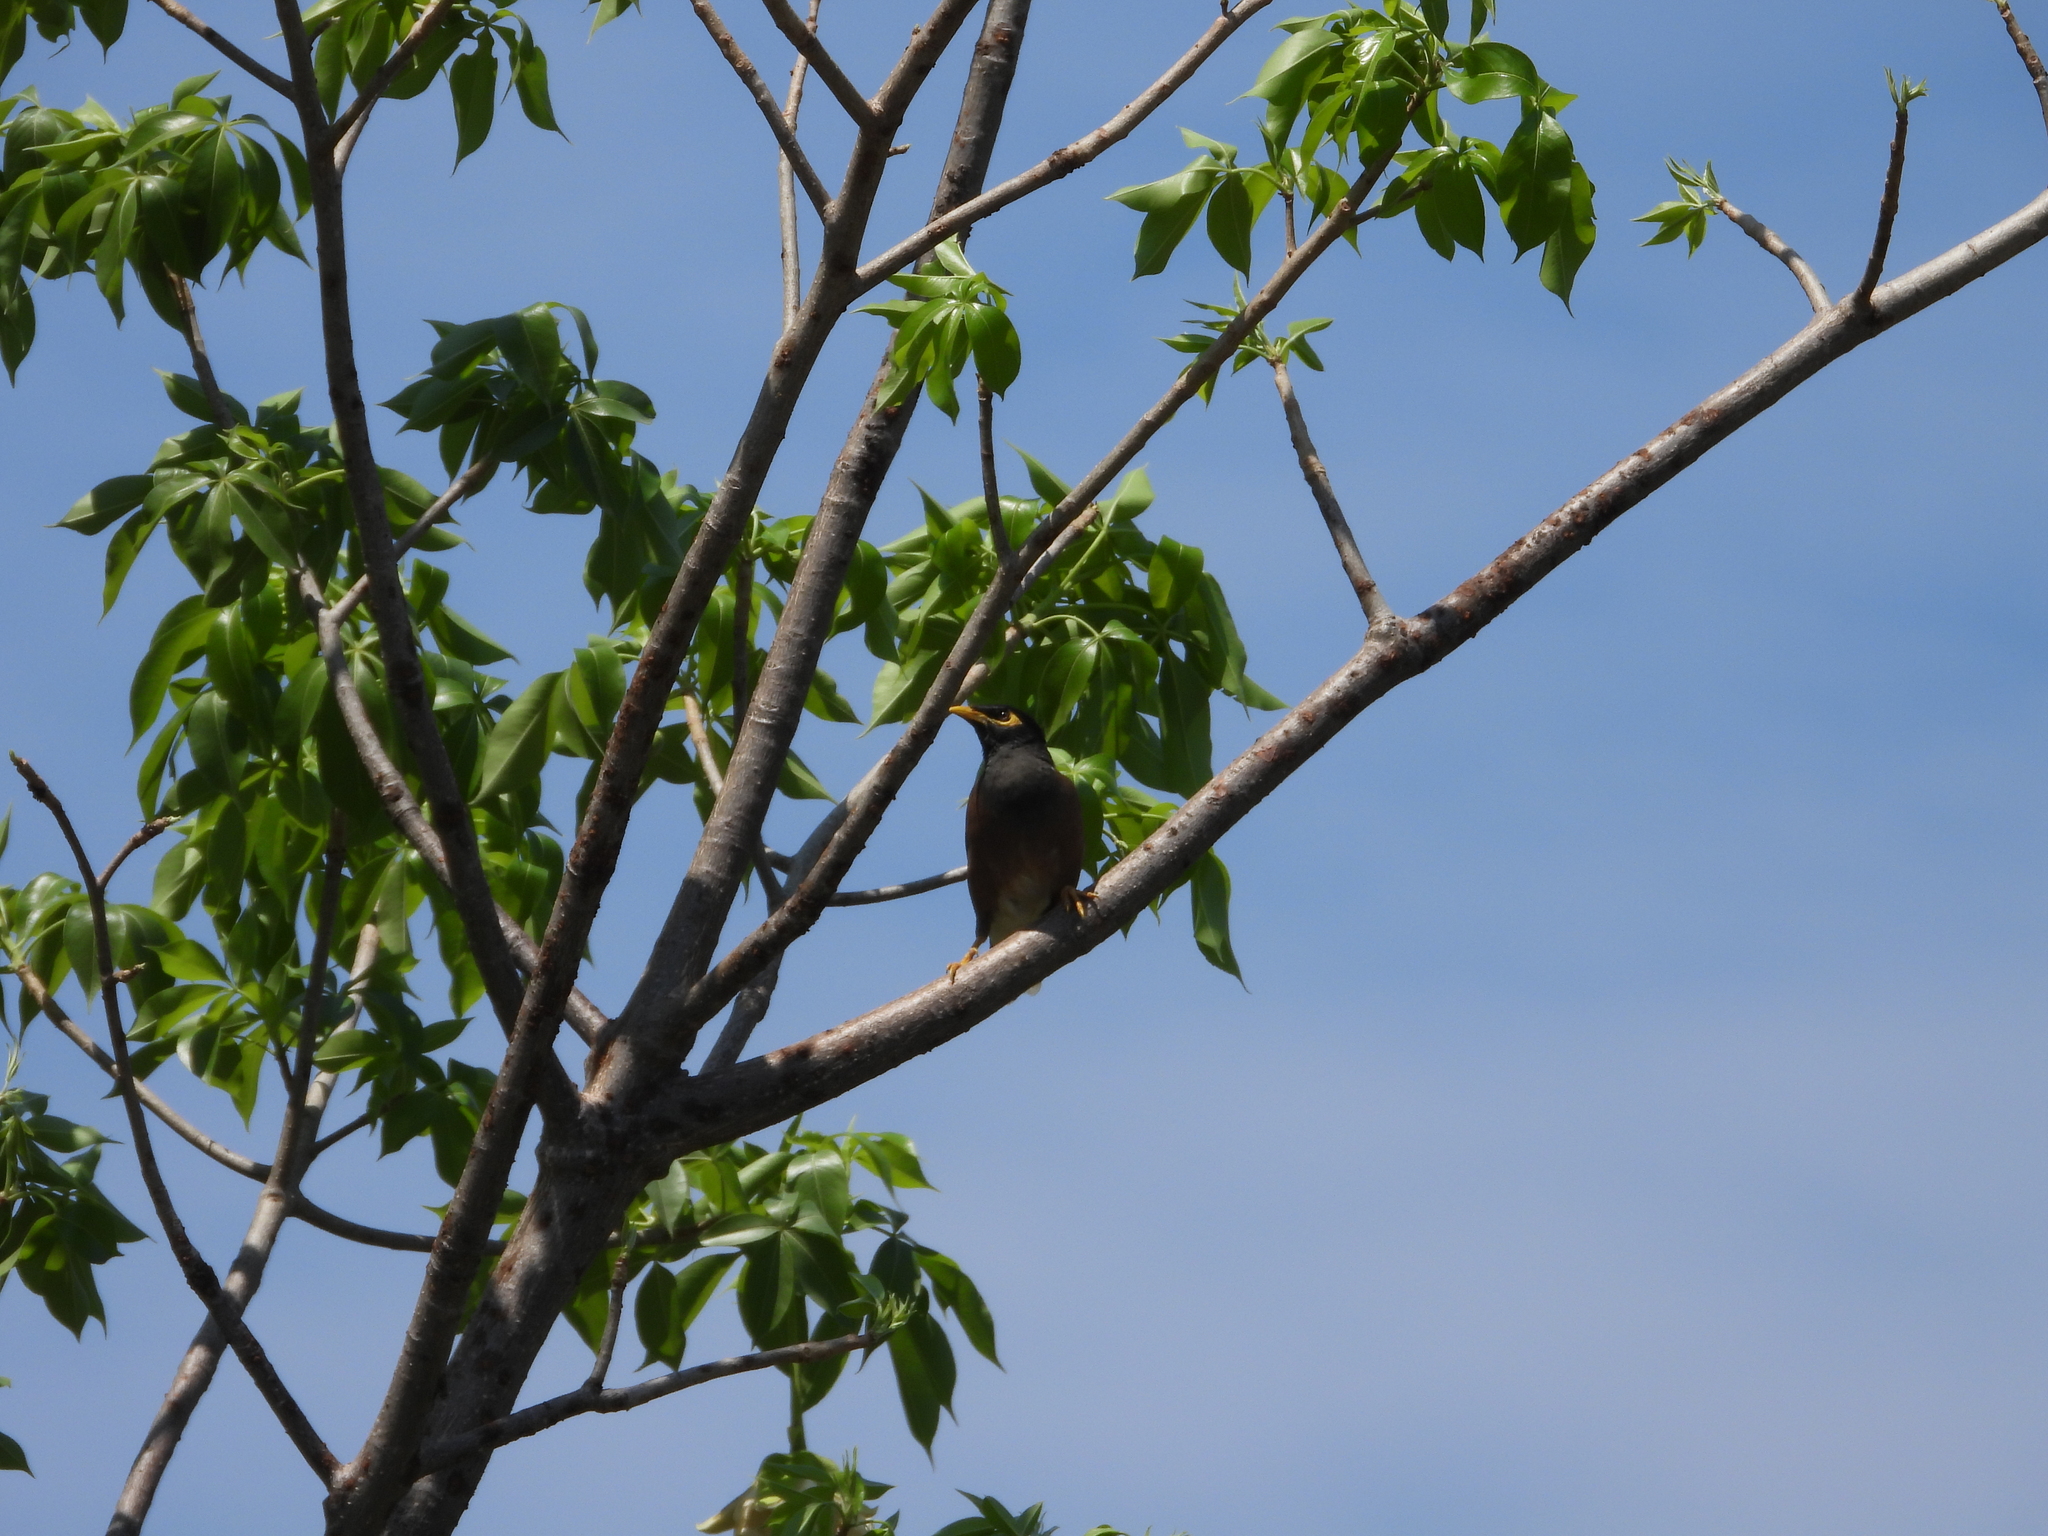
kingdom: Animalia
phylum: Chordata
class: Aves
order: Passeriformes
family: Sturnidae
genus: Acridotheres
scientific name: Acridotheres tristis
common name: Common myna
